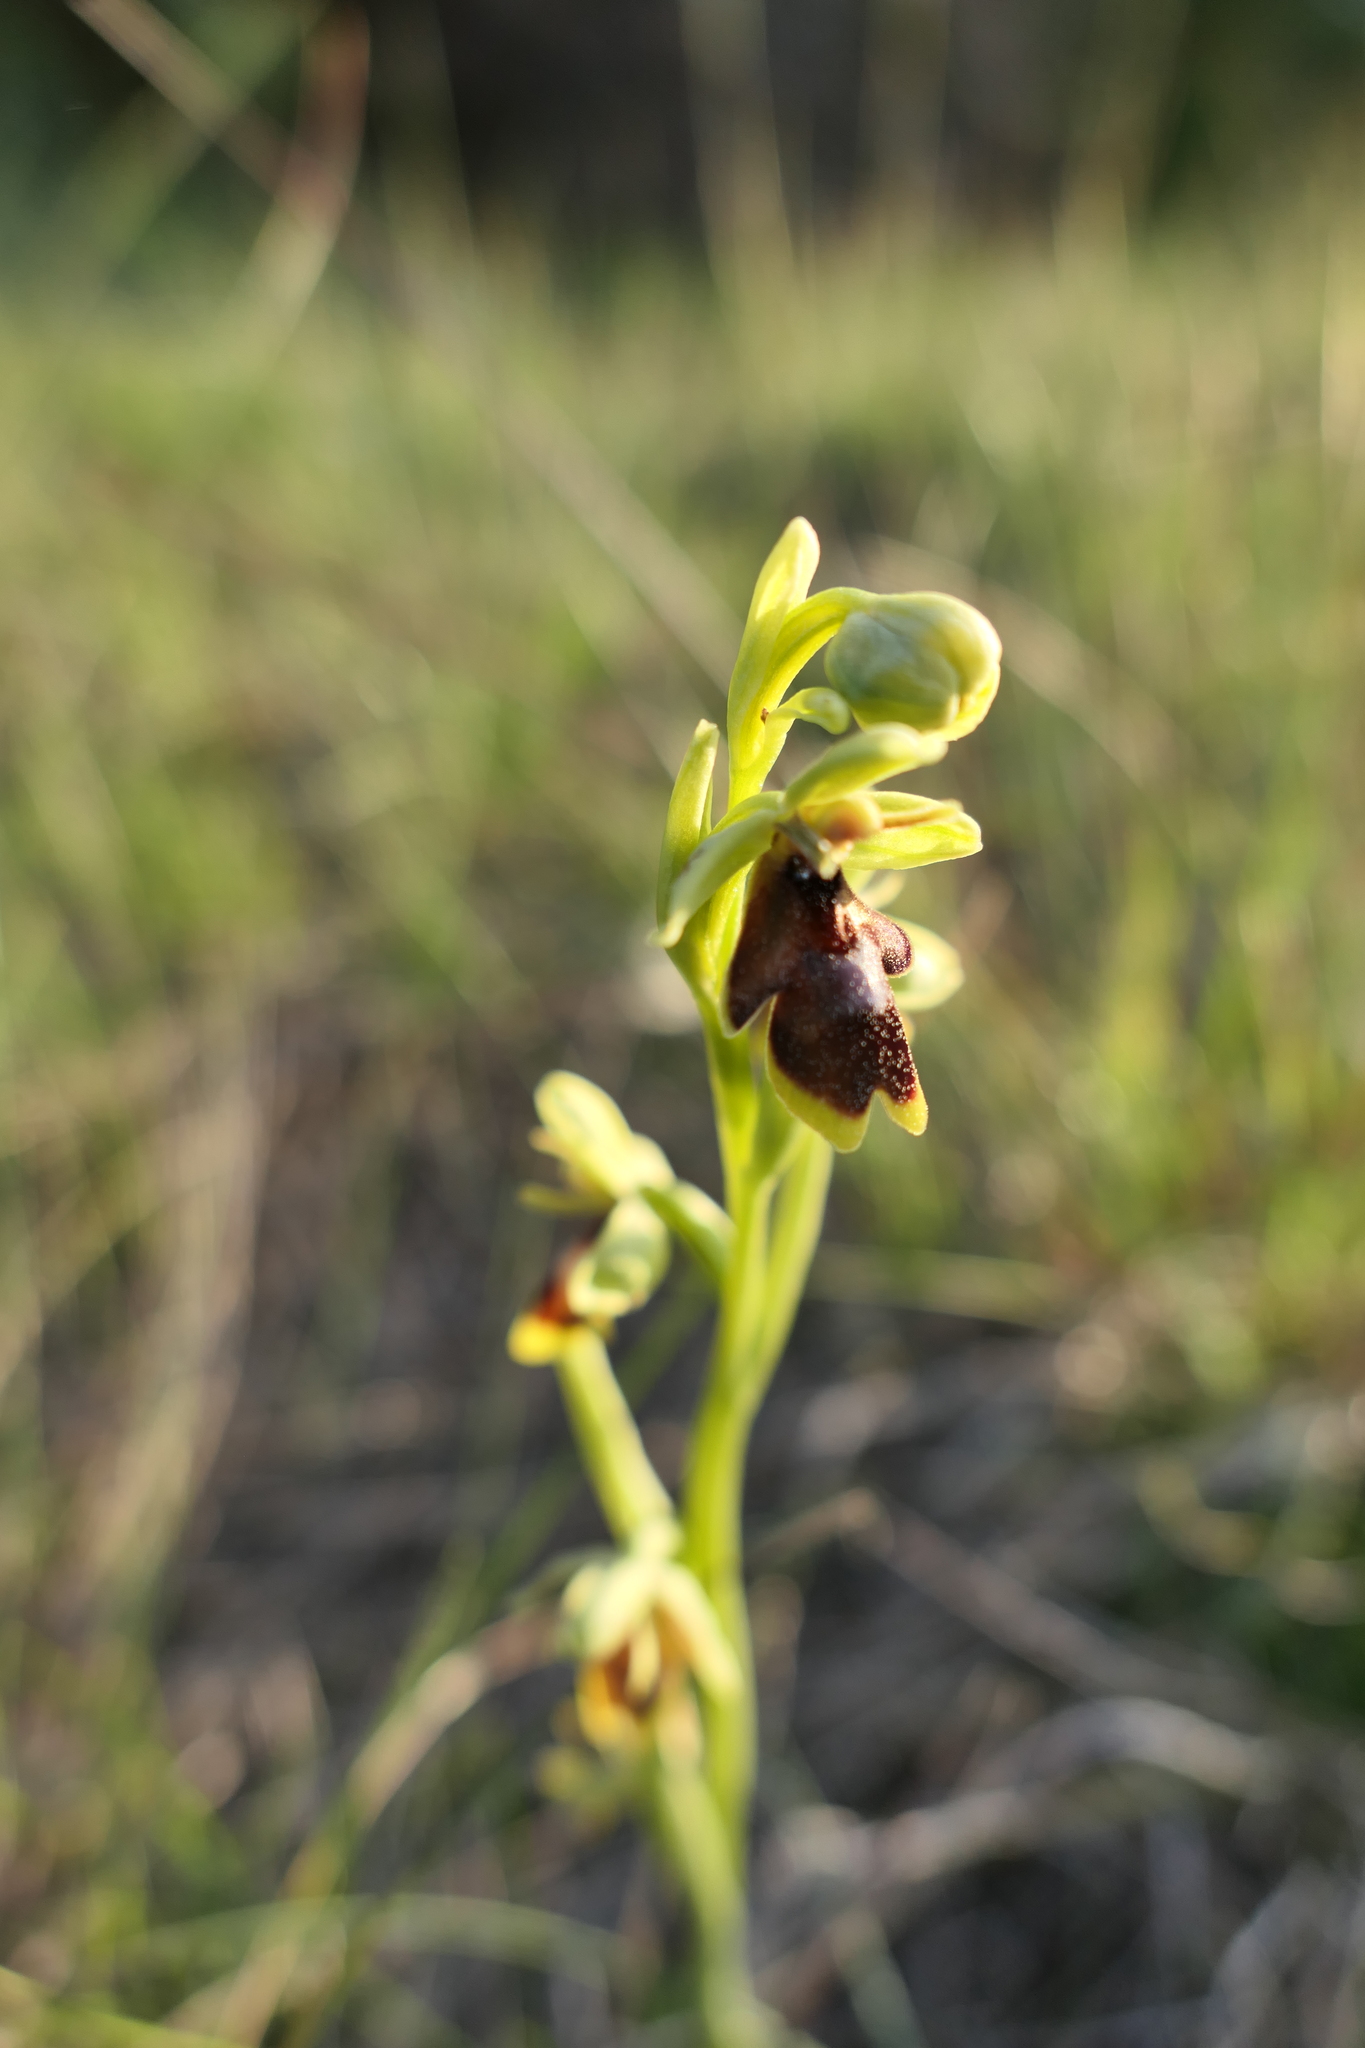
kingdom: Plantae
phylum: Tracheophyta
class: Liliopsida
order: Asparagales
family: Orchidaceae
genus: Ophrys
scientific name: Ophrys insectifera
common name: Fly orchid
